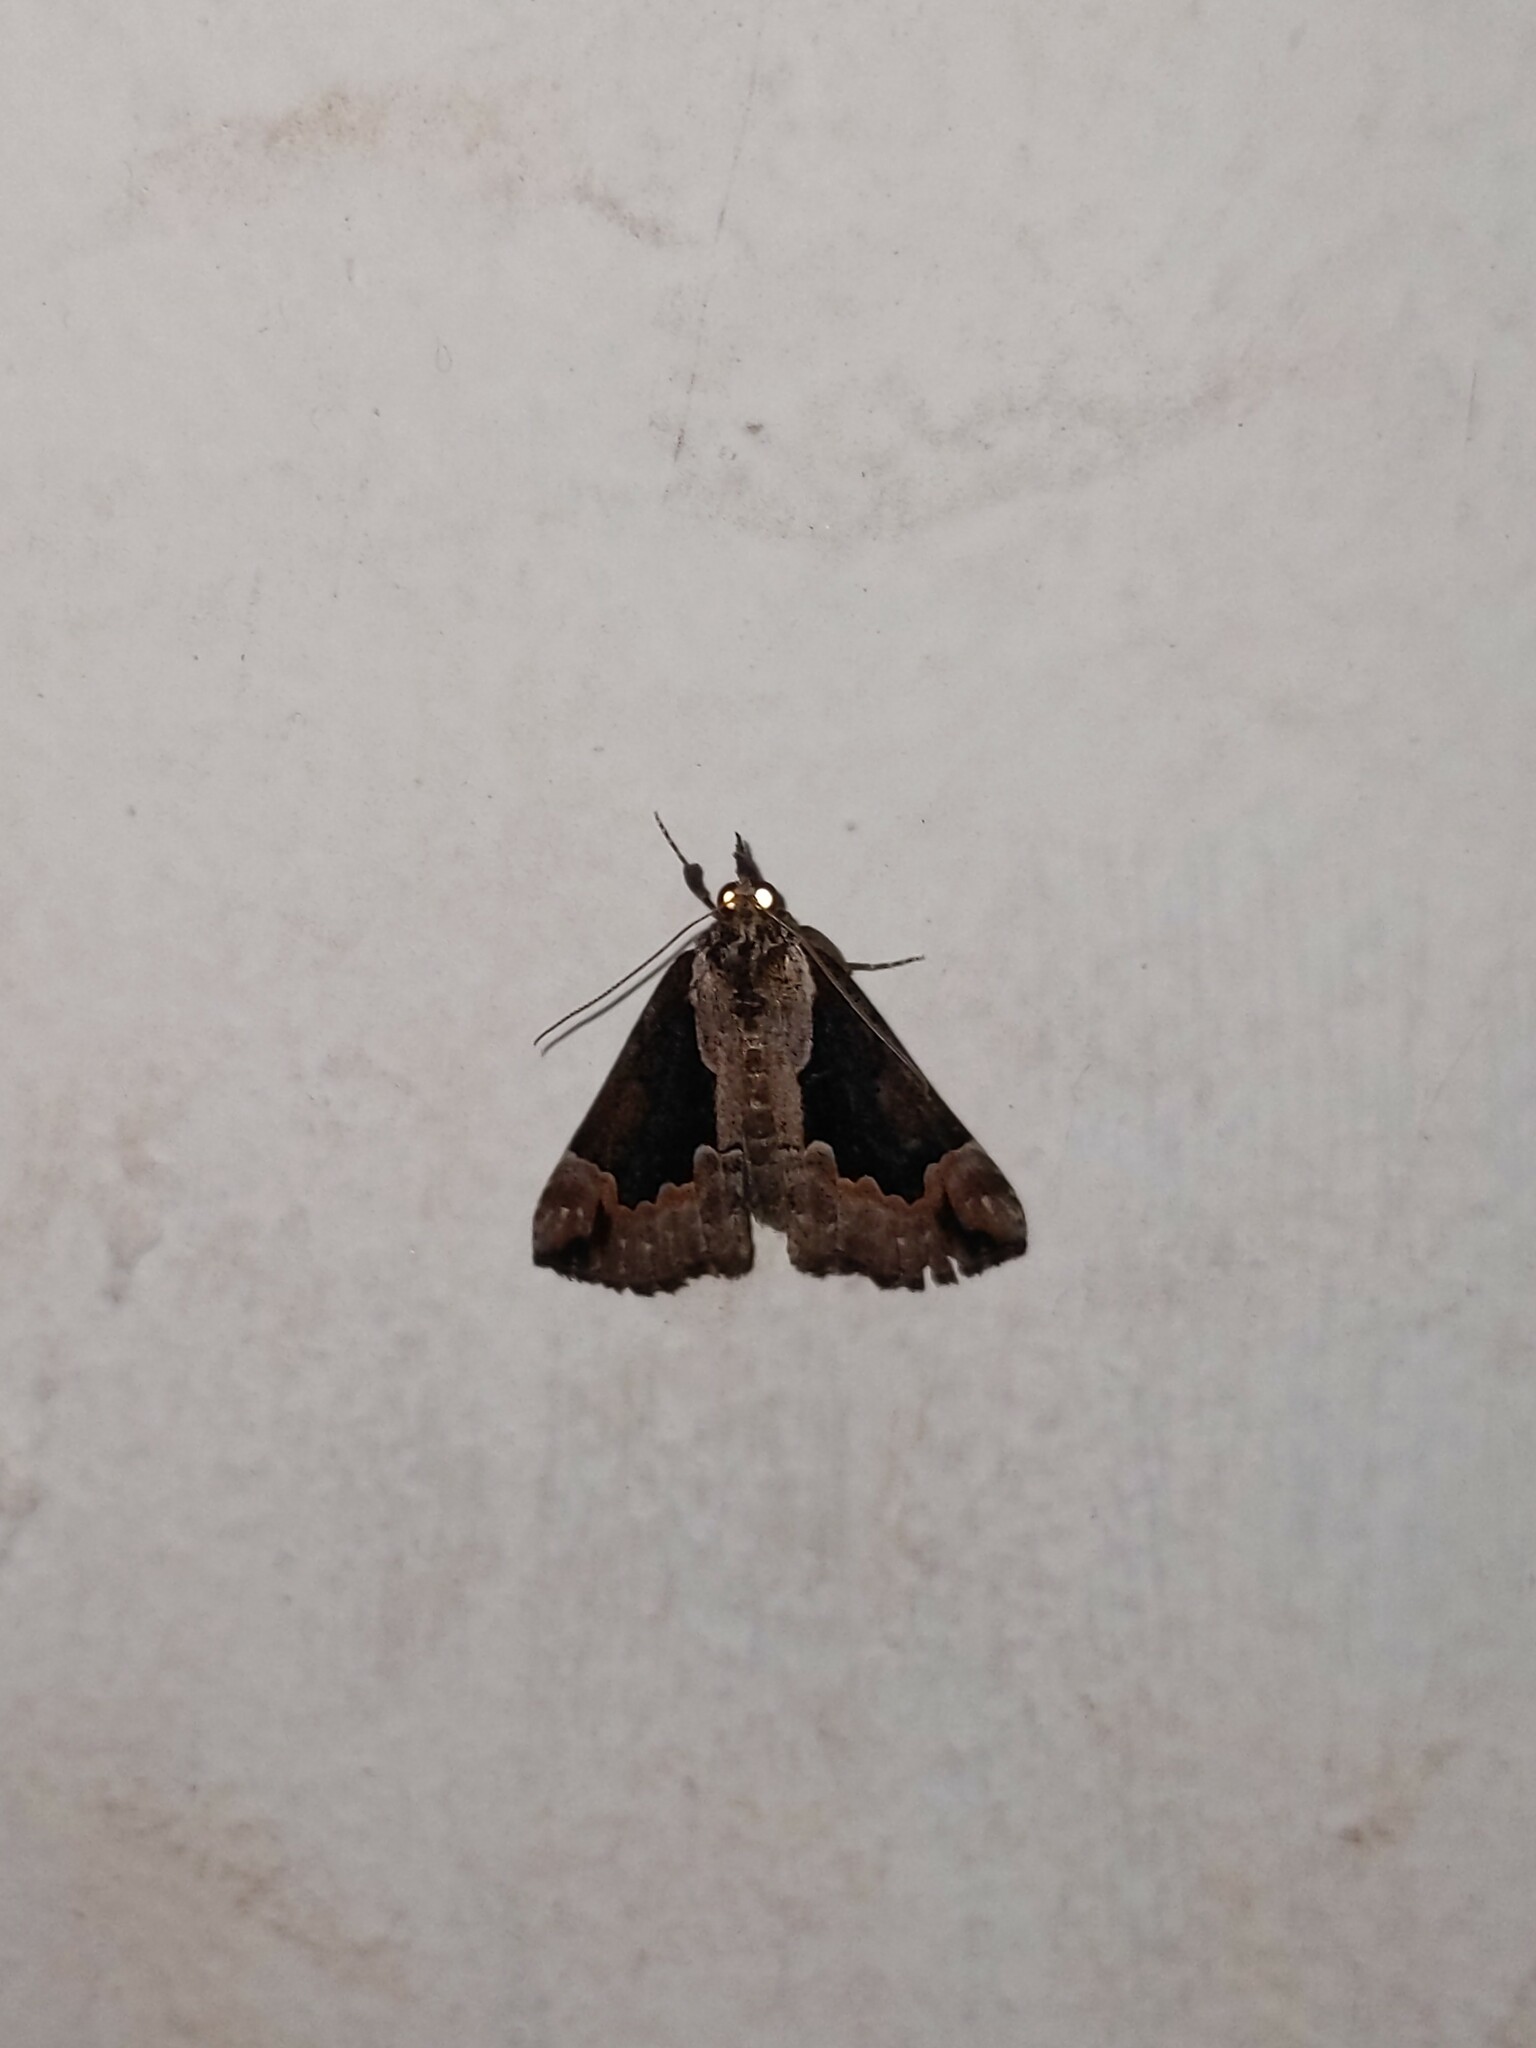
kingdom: Animalia
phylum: Arthropoda
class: Insecta
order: Lepidoptera
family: Erebidae
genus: Hypena
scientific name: Hypena baltimoralis
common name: Baltimore snout
